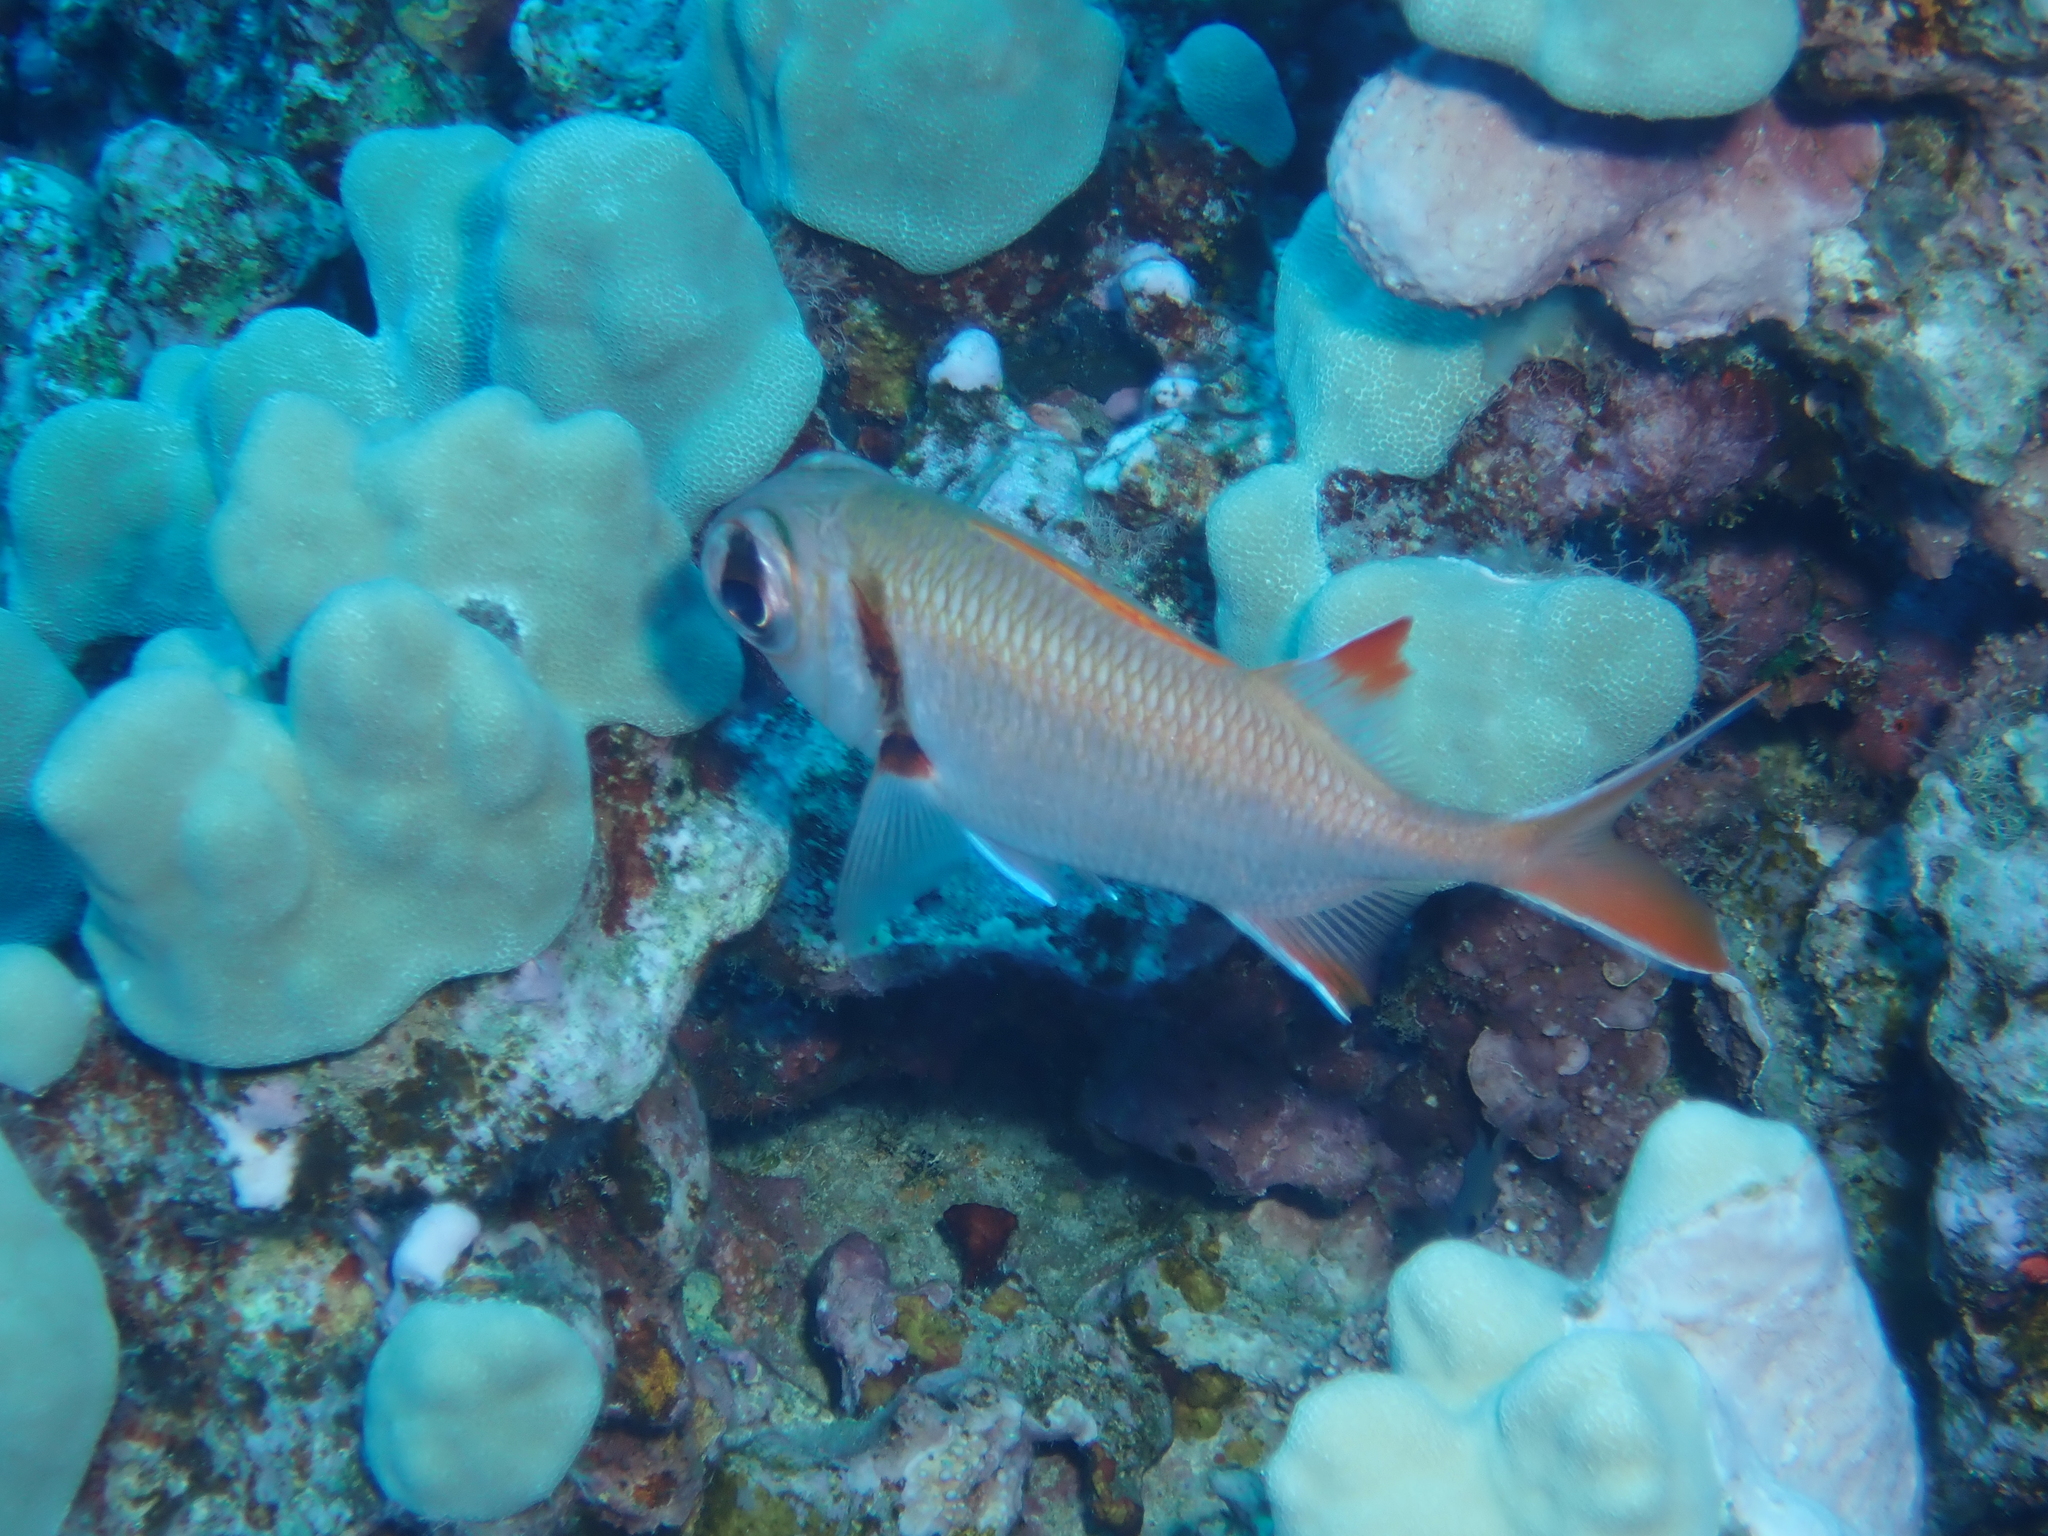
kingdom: Animalia
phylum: Chordata
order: Beryciformes
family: Holocentridae
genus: Myripristis
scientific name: Myripristis kuntee
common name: Epaulette soldierfish
